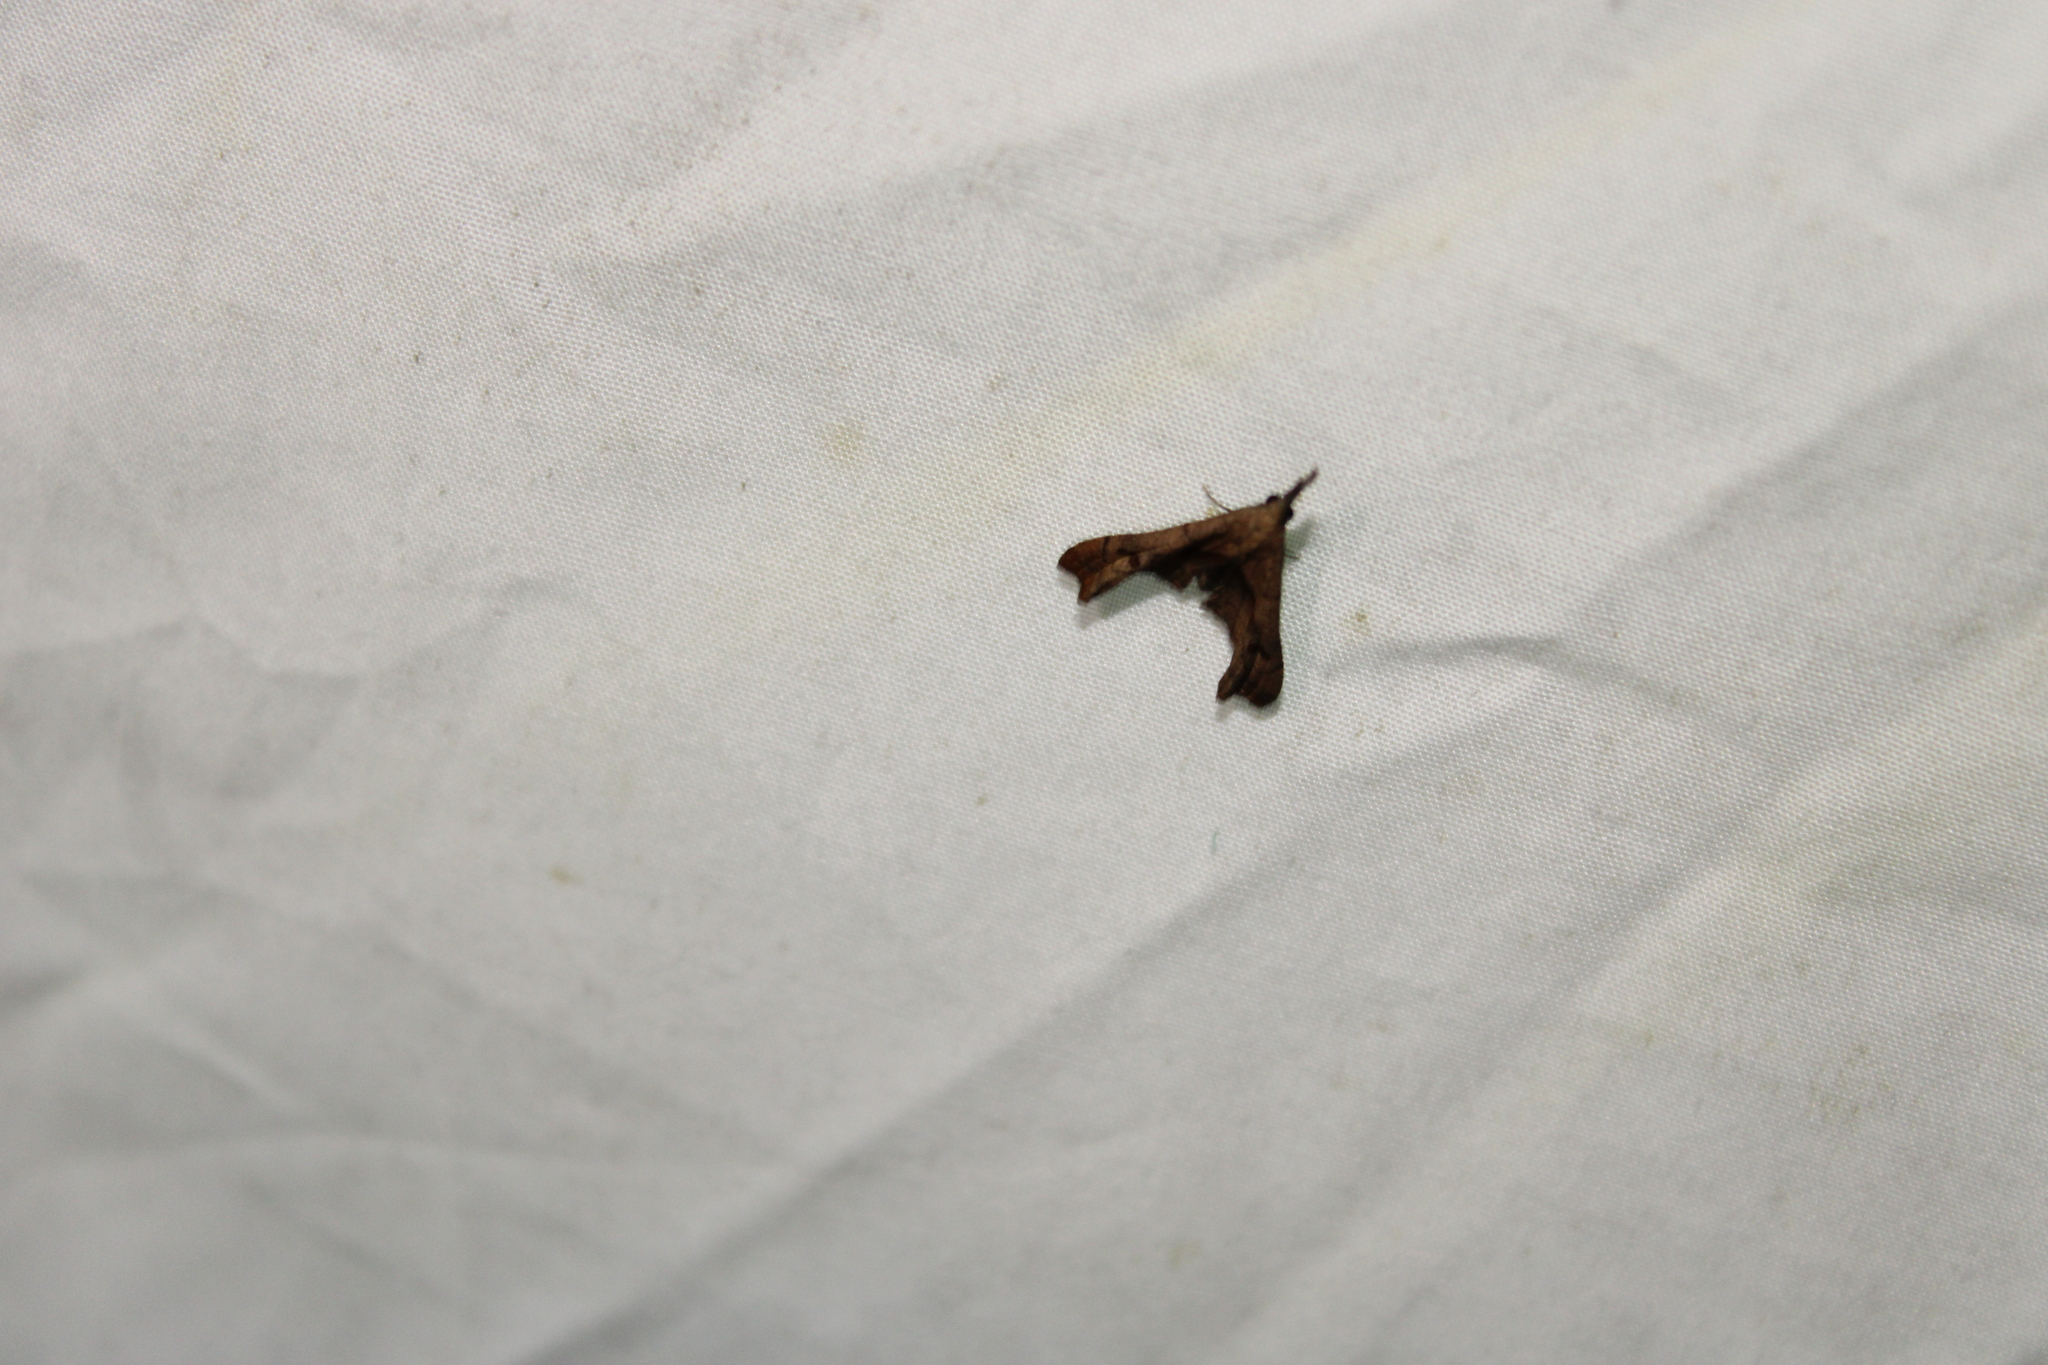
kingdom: Animalia
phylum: Arthropoda
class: Insecta
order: Lepidoptera
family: Erebidae
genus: Palthis
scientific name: Palthis angulalis
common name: Dark-spotted palthis moth
